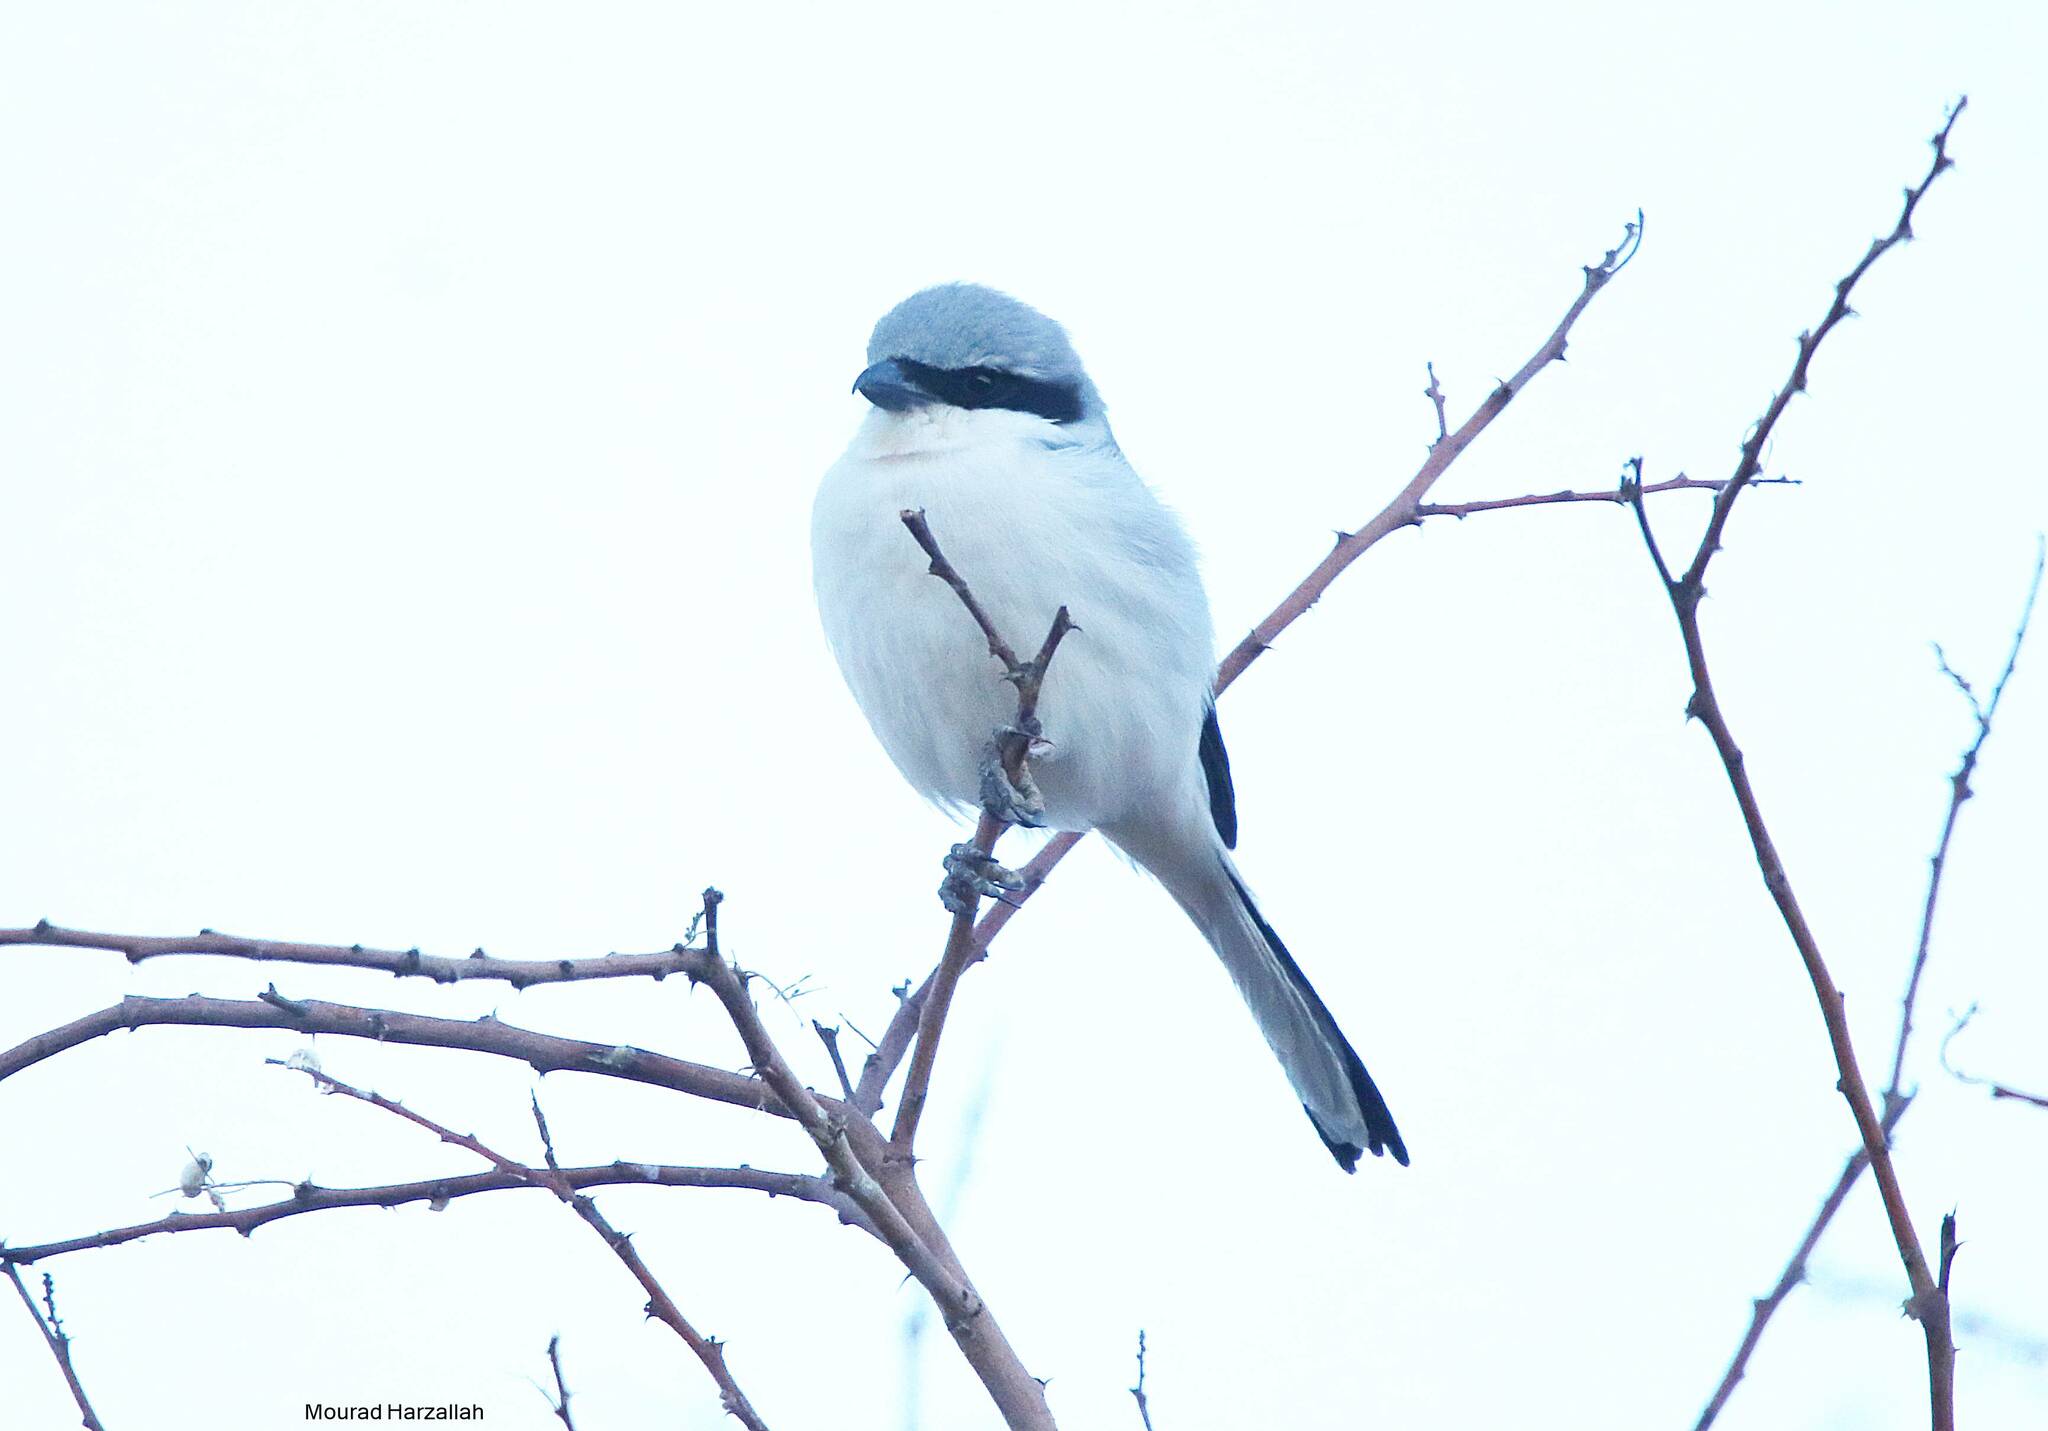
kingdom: Animalia
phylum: Chordata
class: Aves
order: Passeriformes
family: Laniidae
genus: Lanius
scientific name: Lanius excubitor
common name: Great grey shrike
